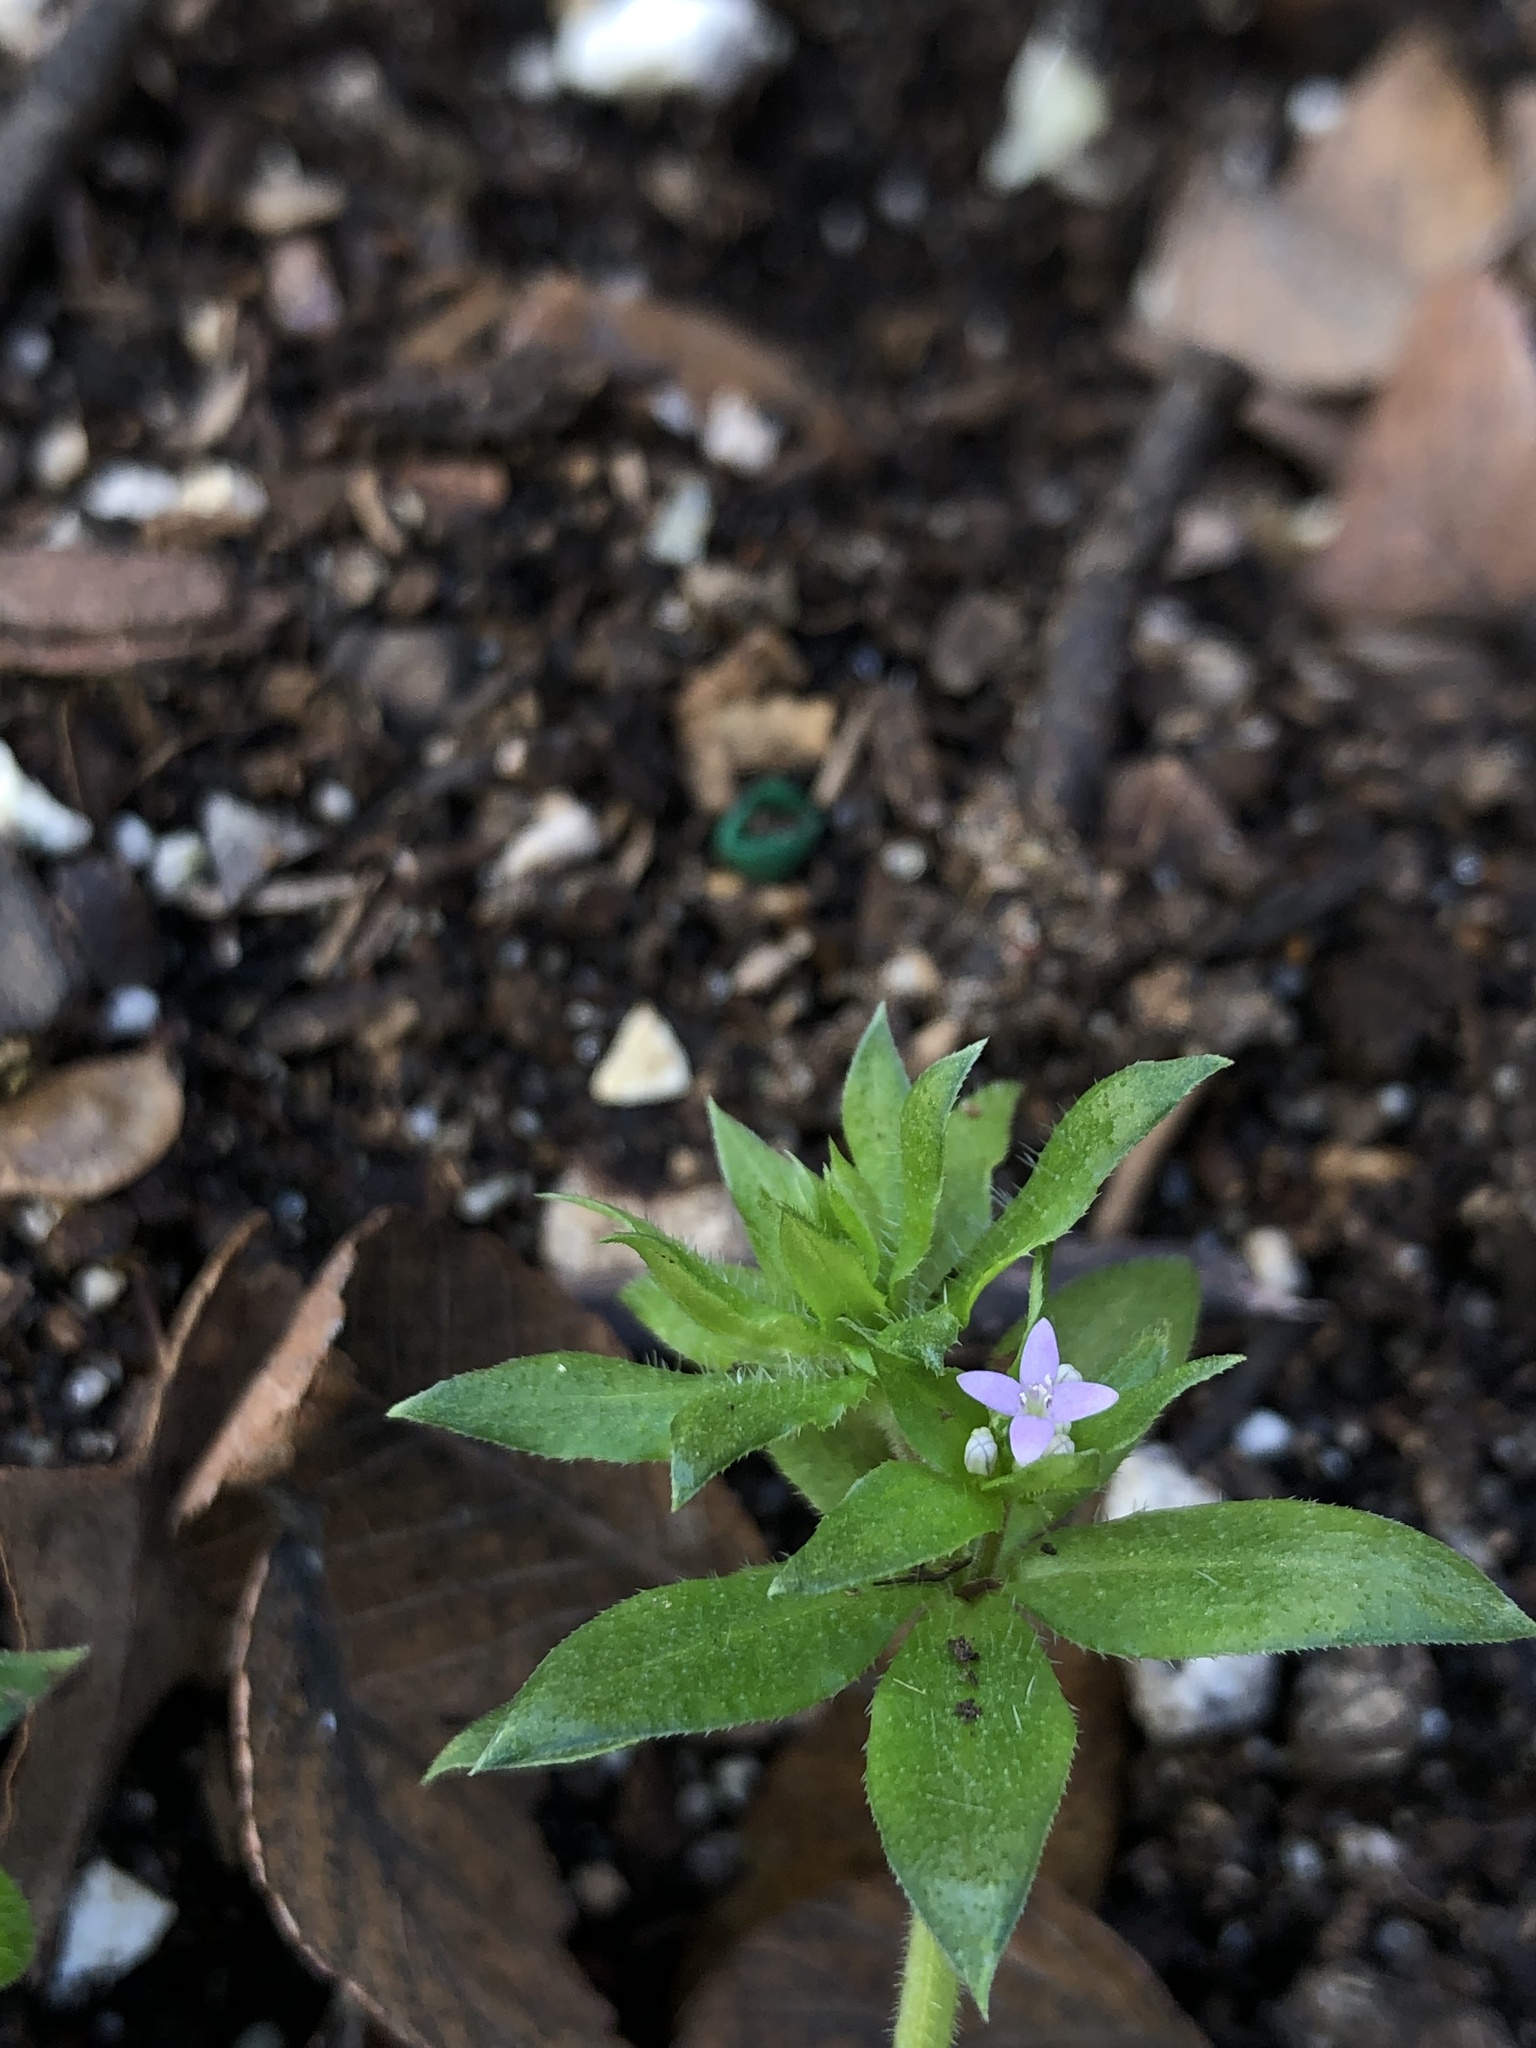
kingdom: Plantae
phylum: Tracheophyta
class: Magnoliopsida
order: Gentianales
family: Rubiaceae
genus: Sherardia
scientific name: Sherardia arvensis
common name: Field madder
